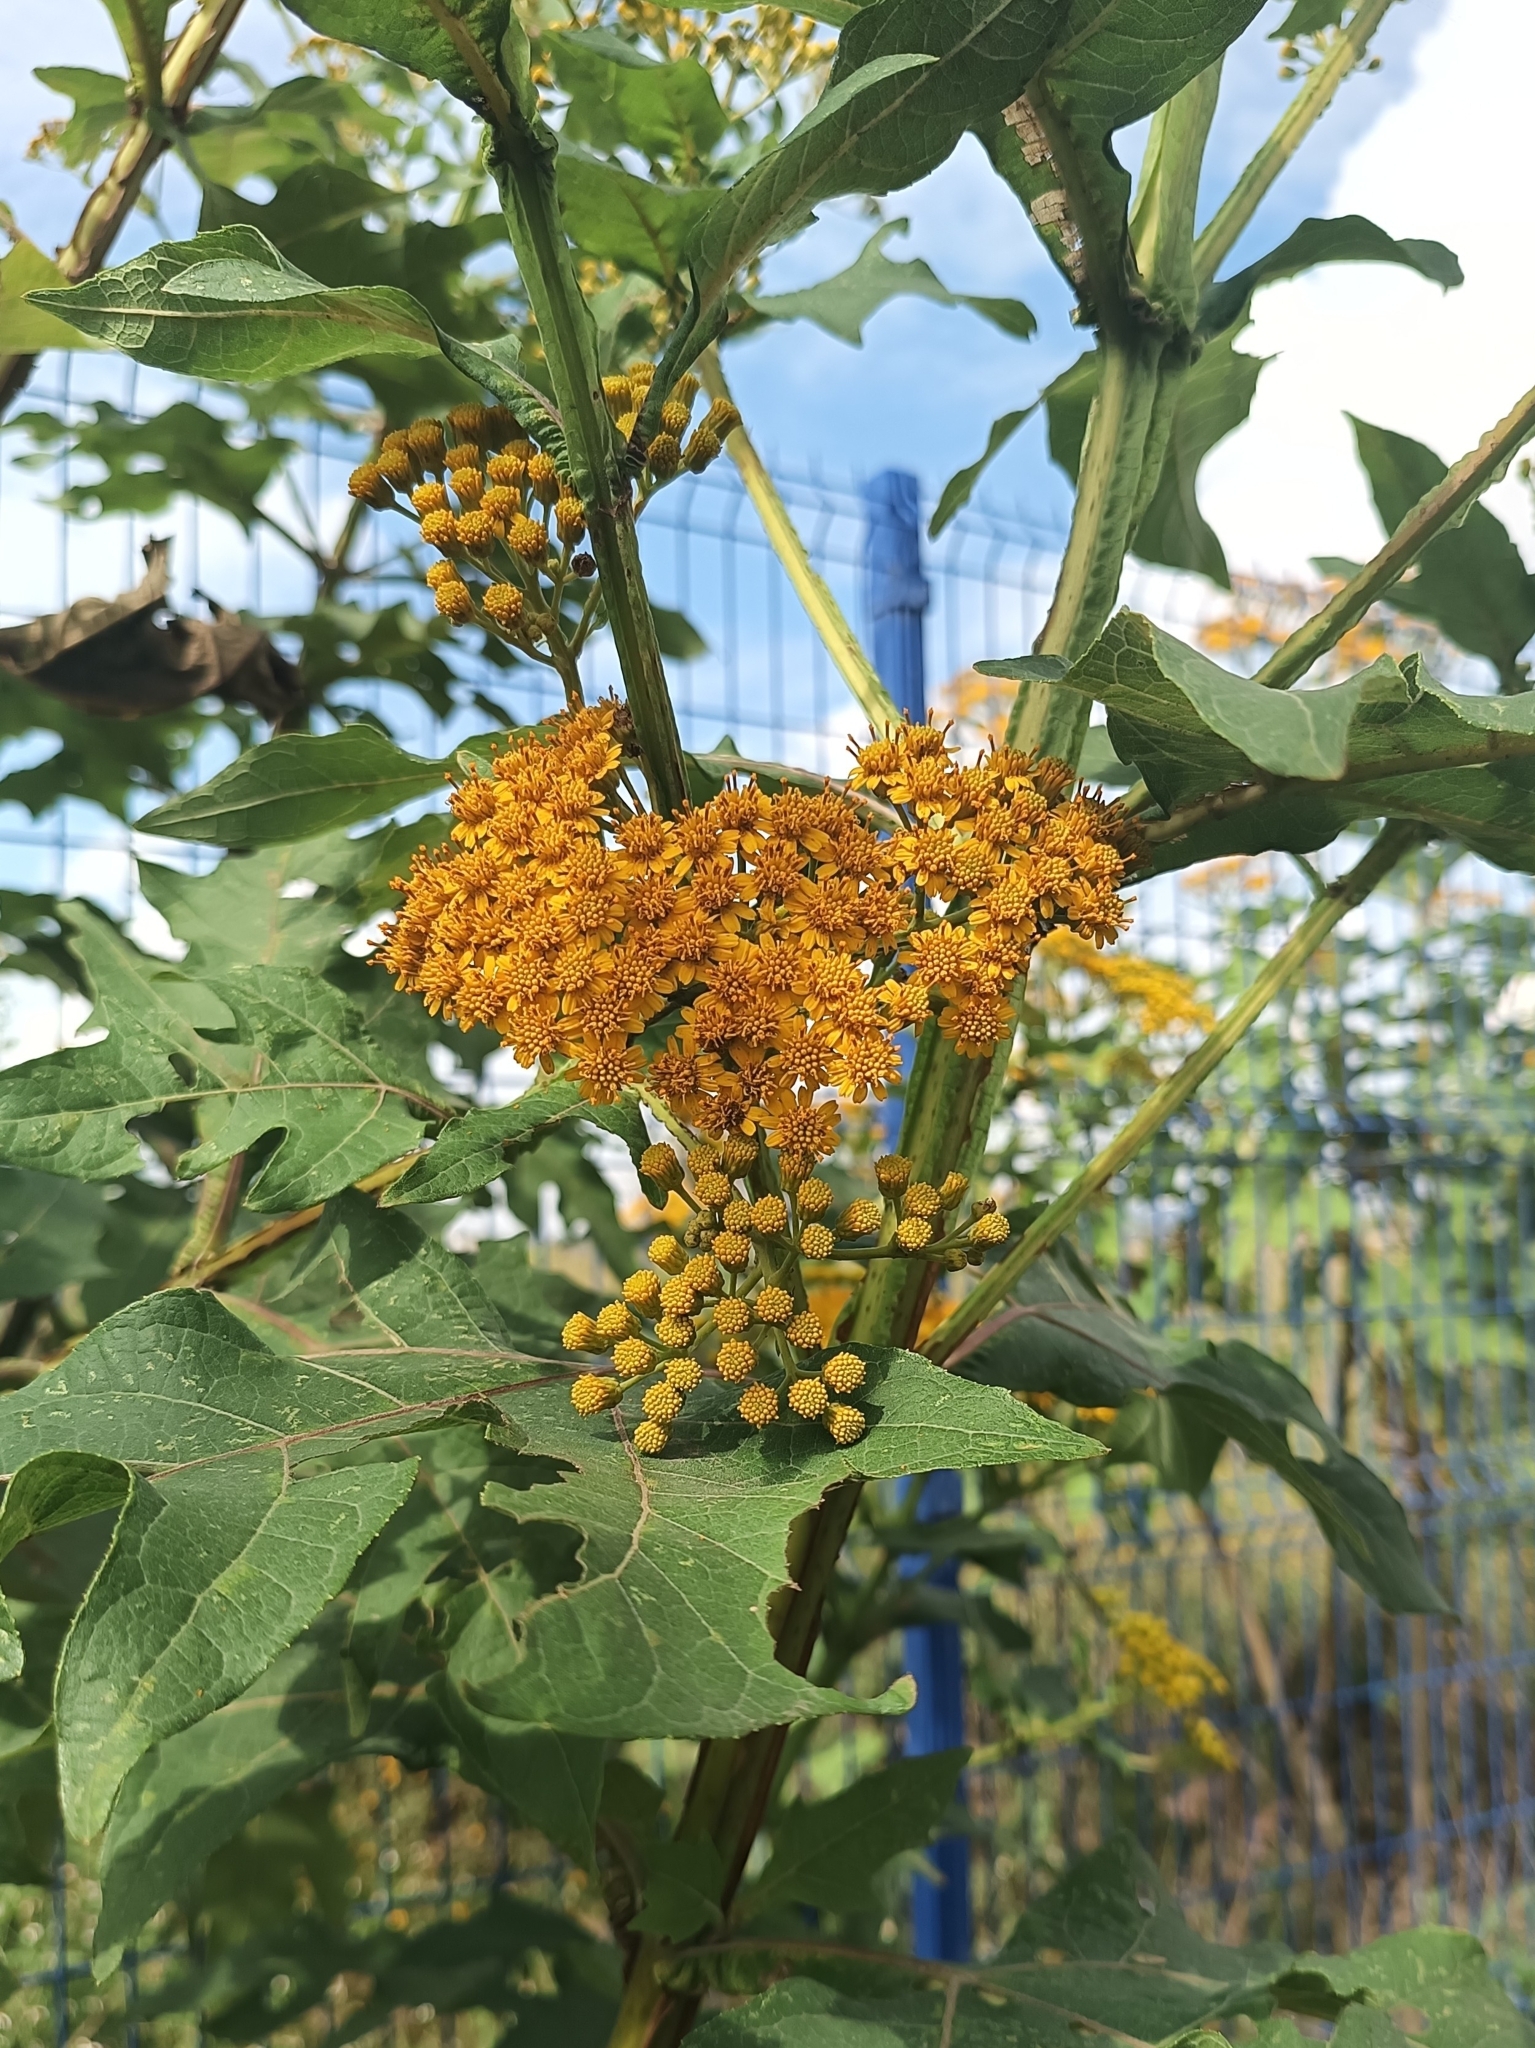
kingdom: Plantae
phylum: Tracheophyta
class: Magnoliopsida
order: Asterales
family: Asteraceae
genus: Verbesina
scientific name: Verbesina fastigiata
